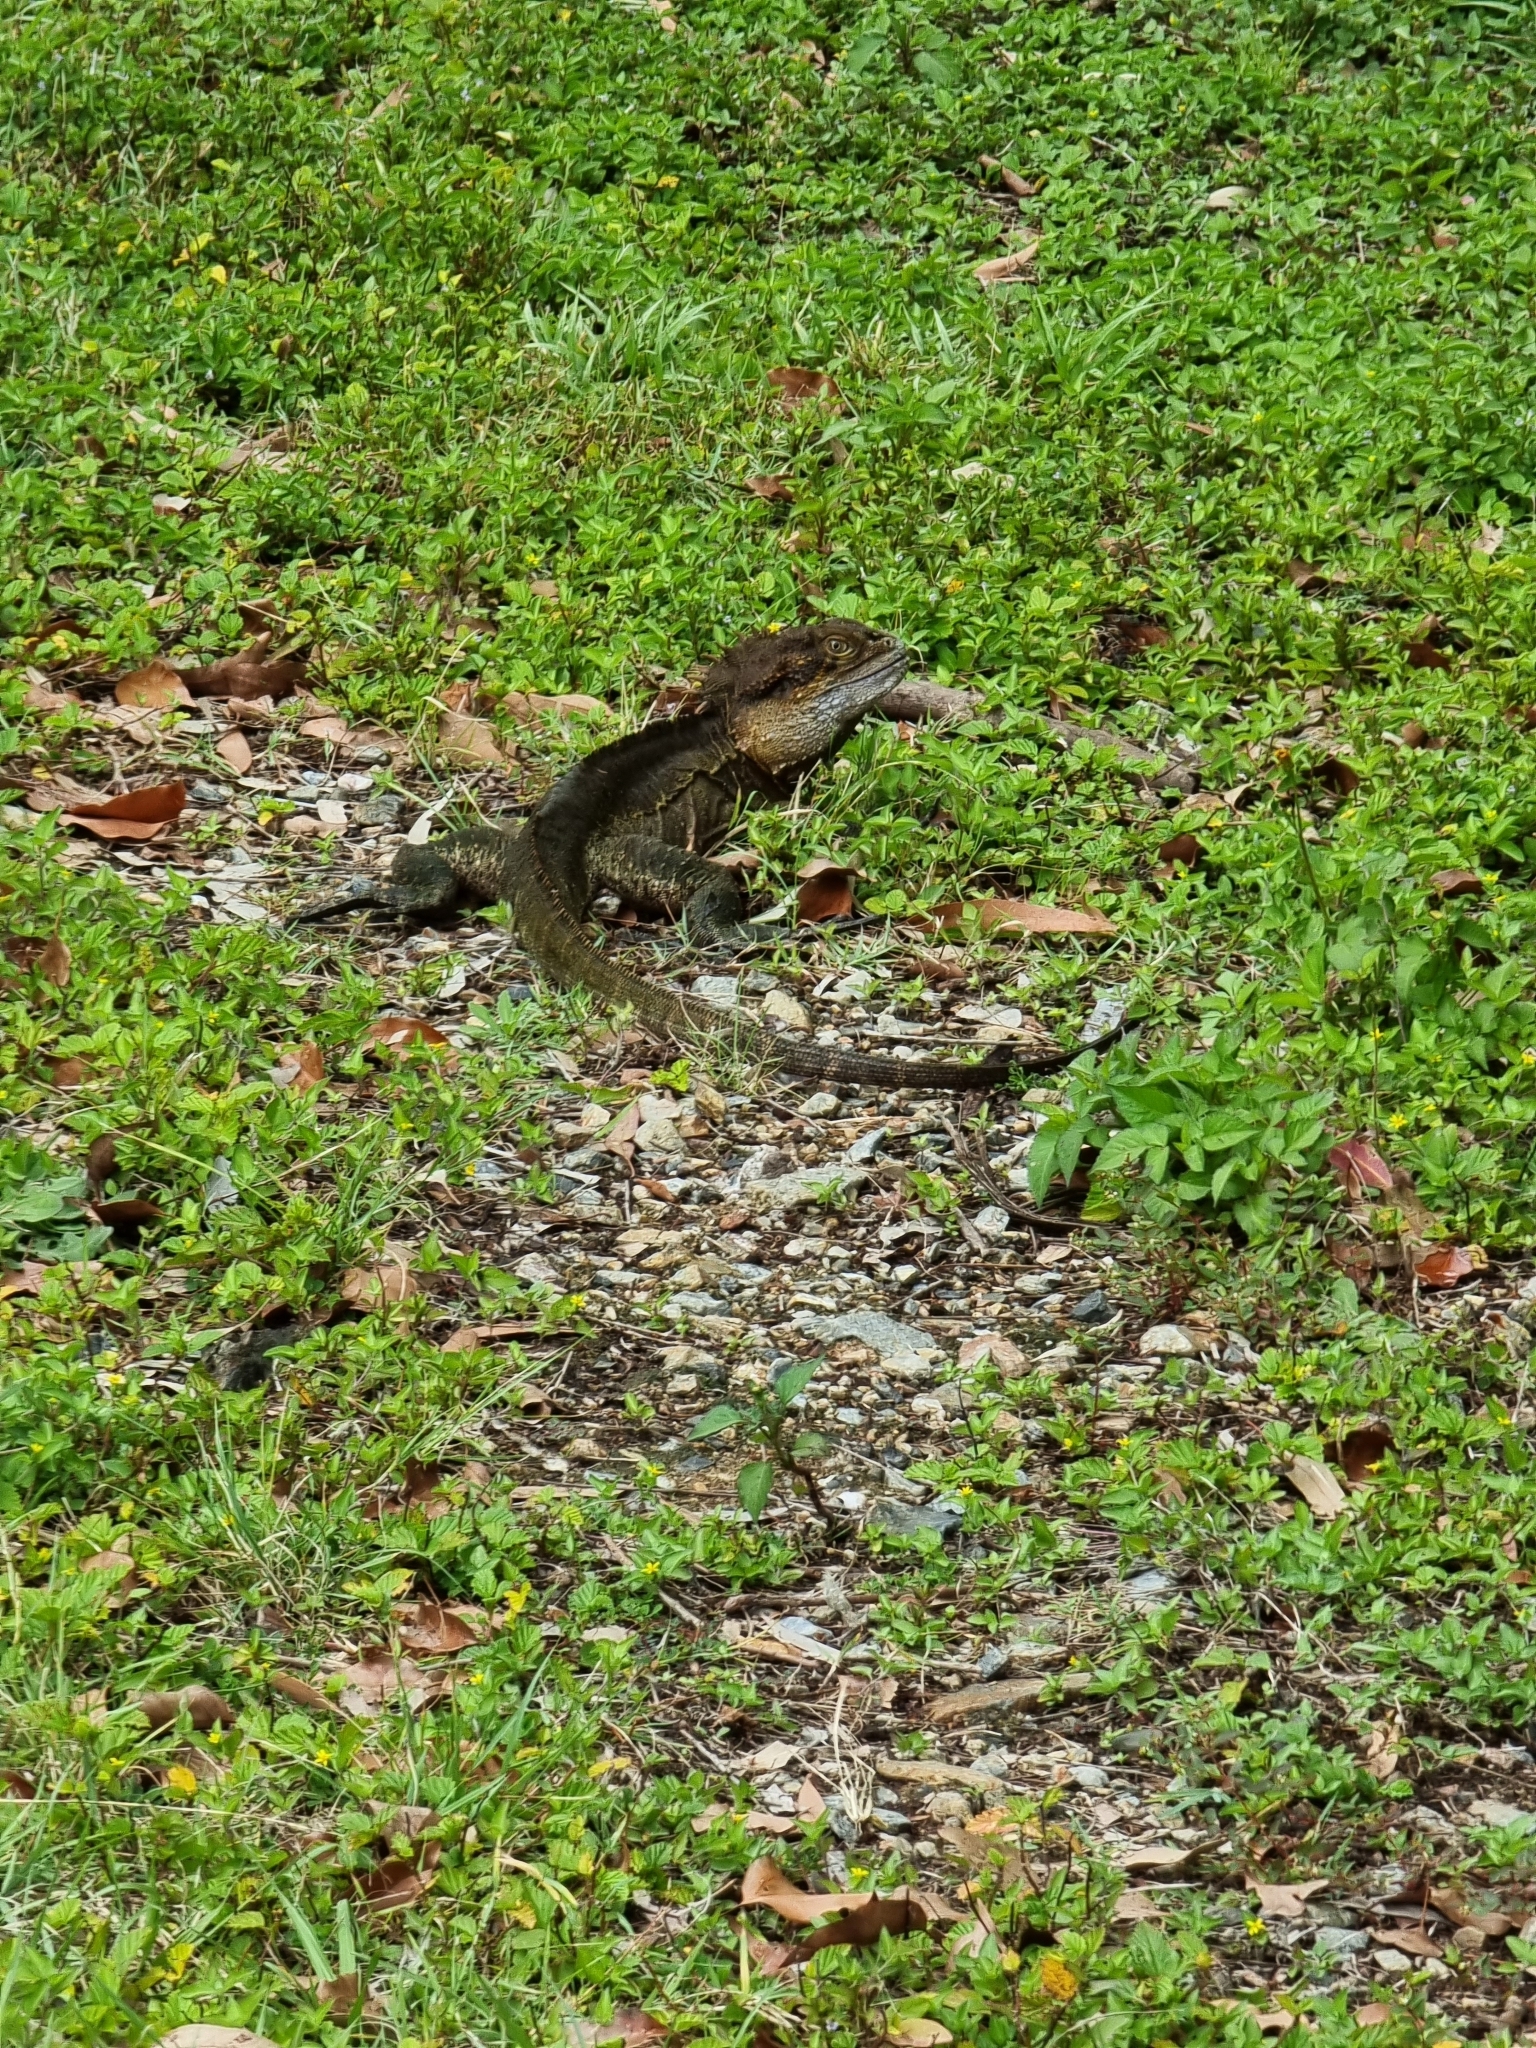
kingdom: Animalia
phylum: Chordata
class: Squamata
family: Agamidae
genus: Intellagama
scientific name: Intellagama lesueurii
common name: Eastern water dragon
